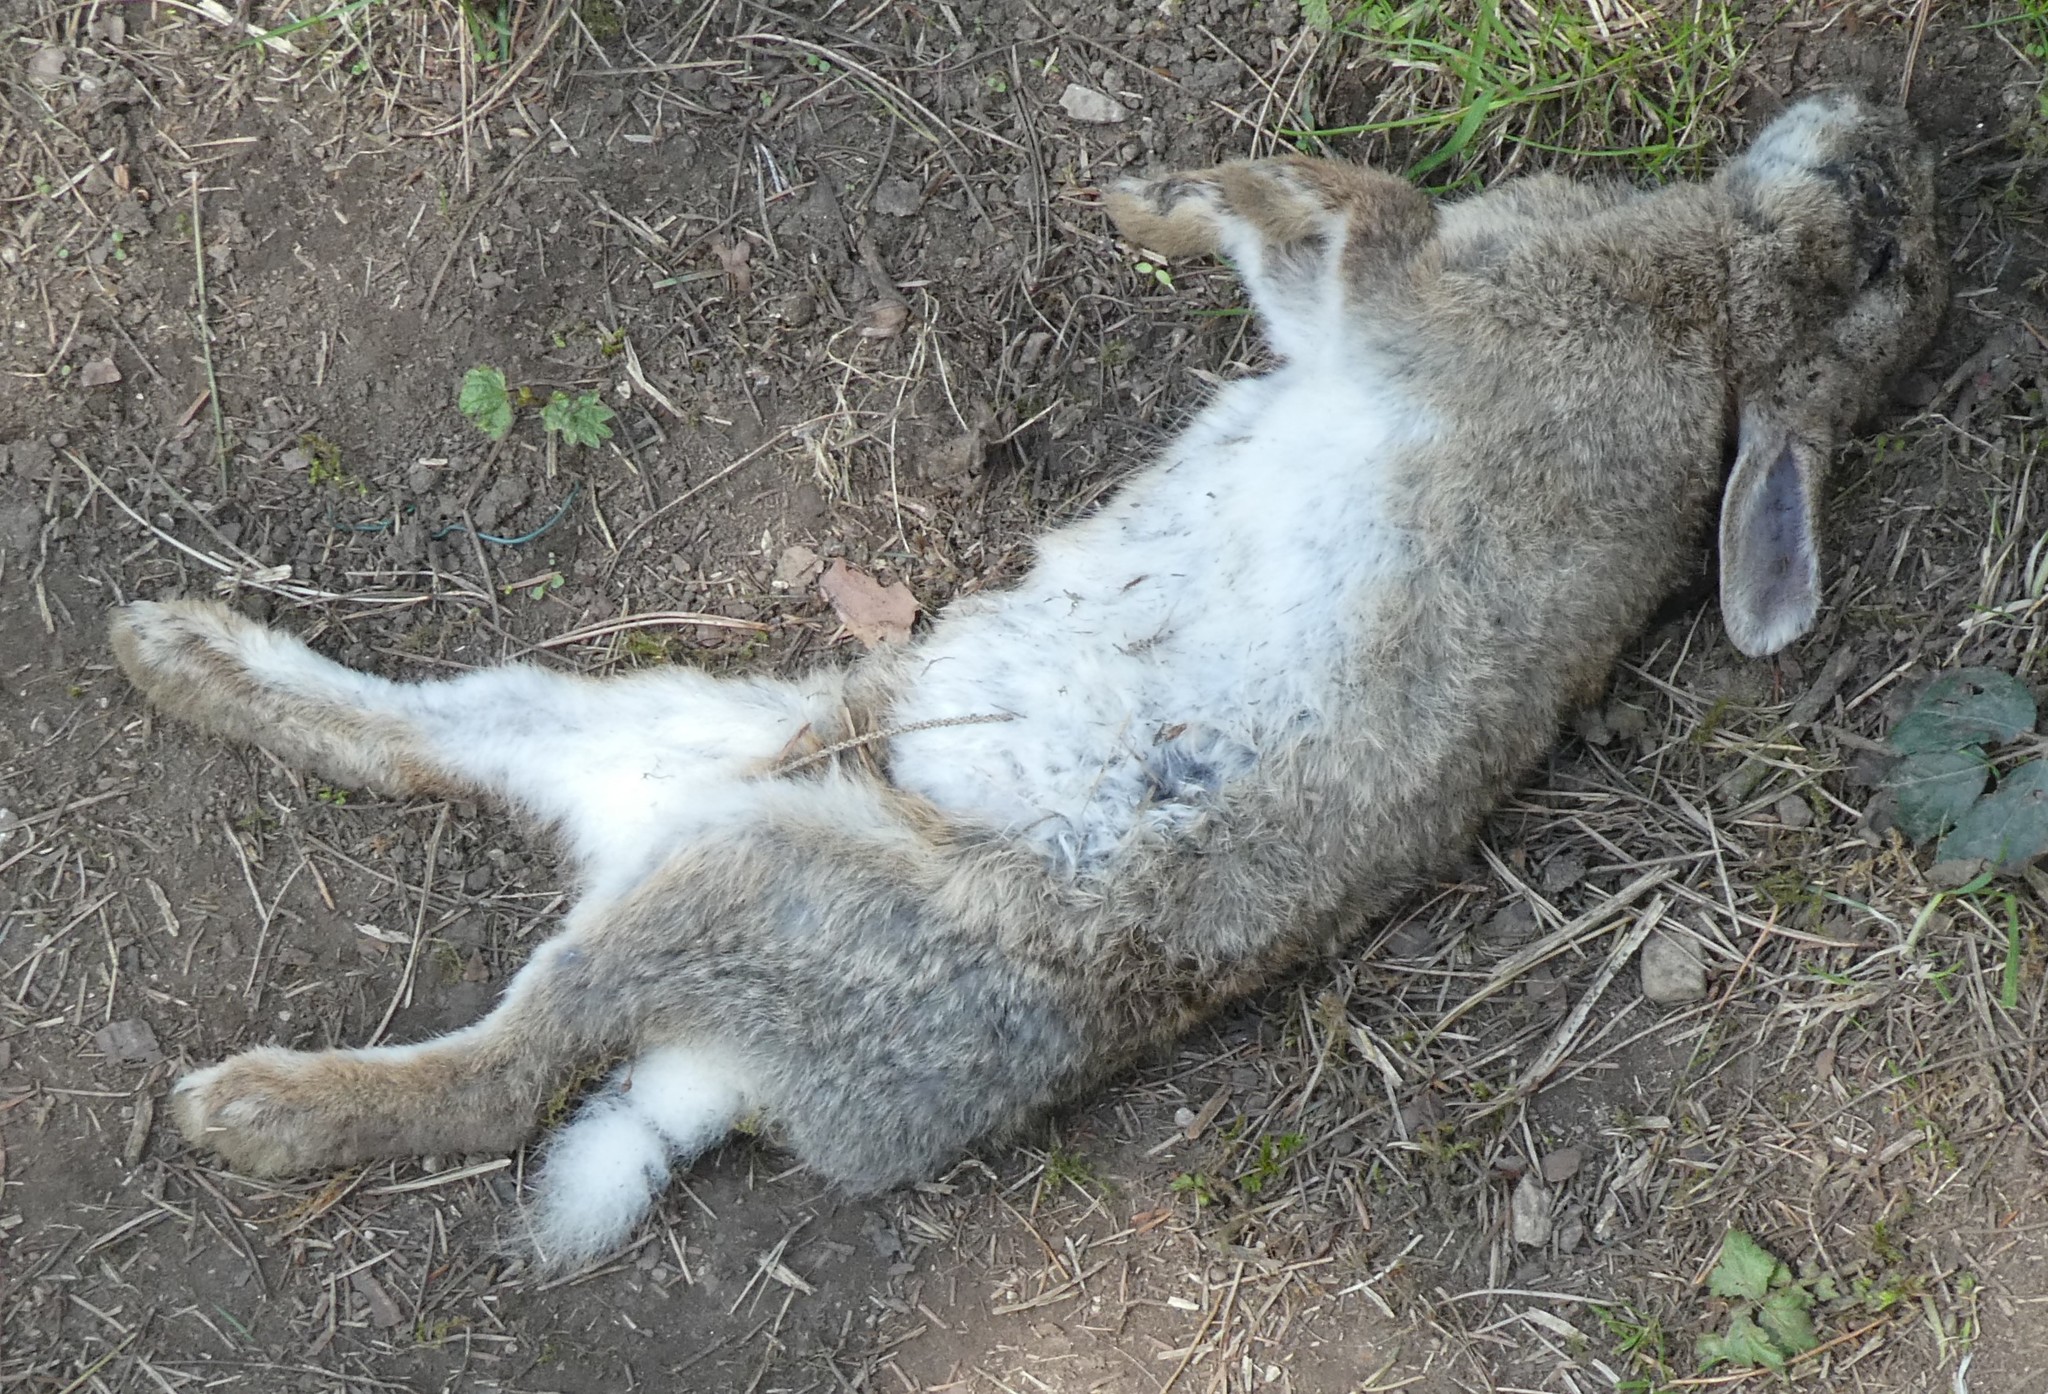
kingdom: Animalia
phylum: Chordata
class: Mammalia
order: Lagomorpha
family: Leporidae
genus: Oryctolagus
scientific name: Oryctolagus cuniculus
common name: European rabbit
